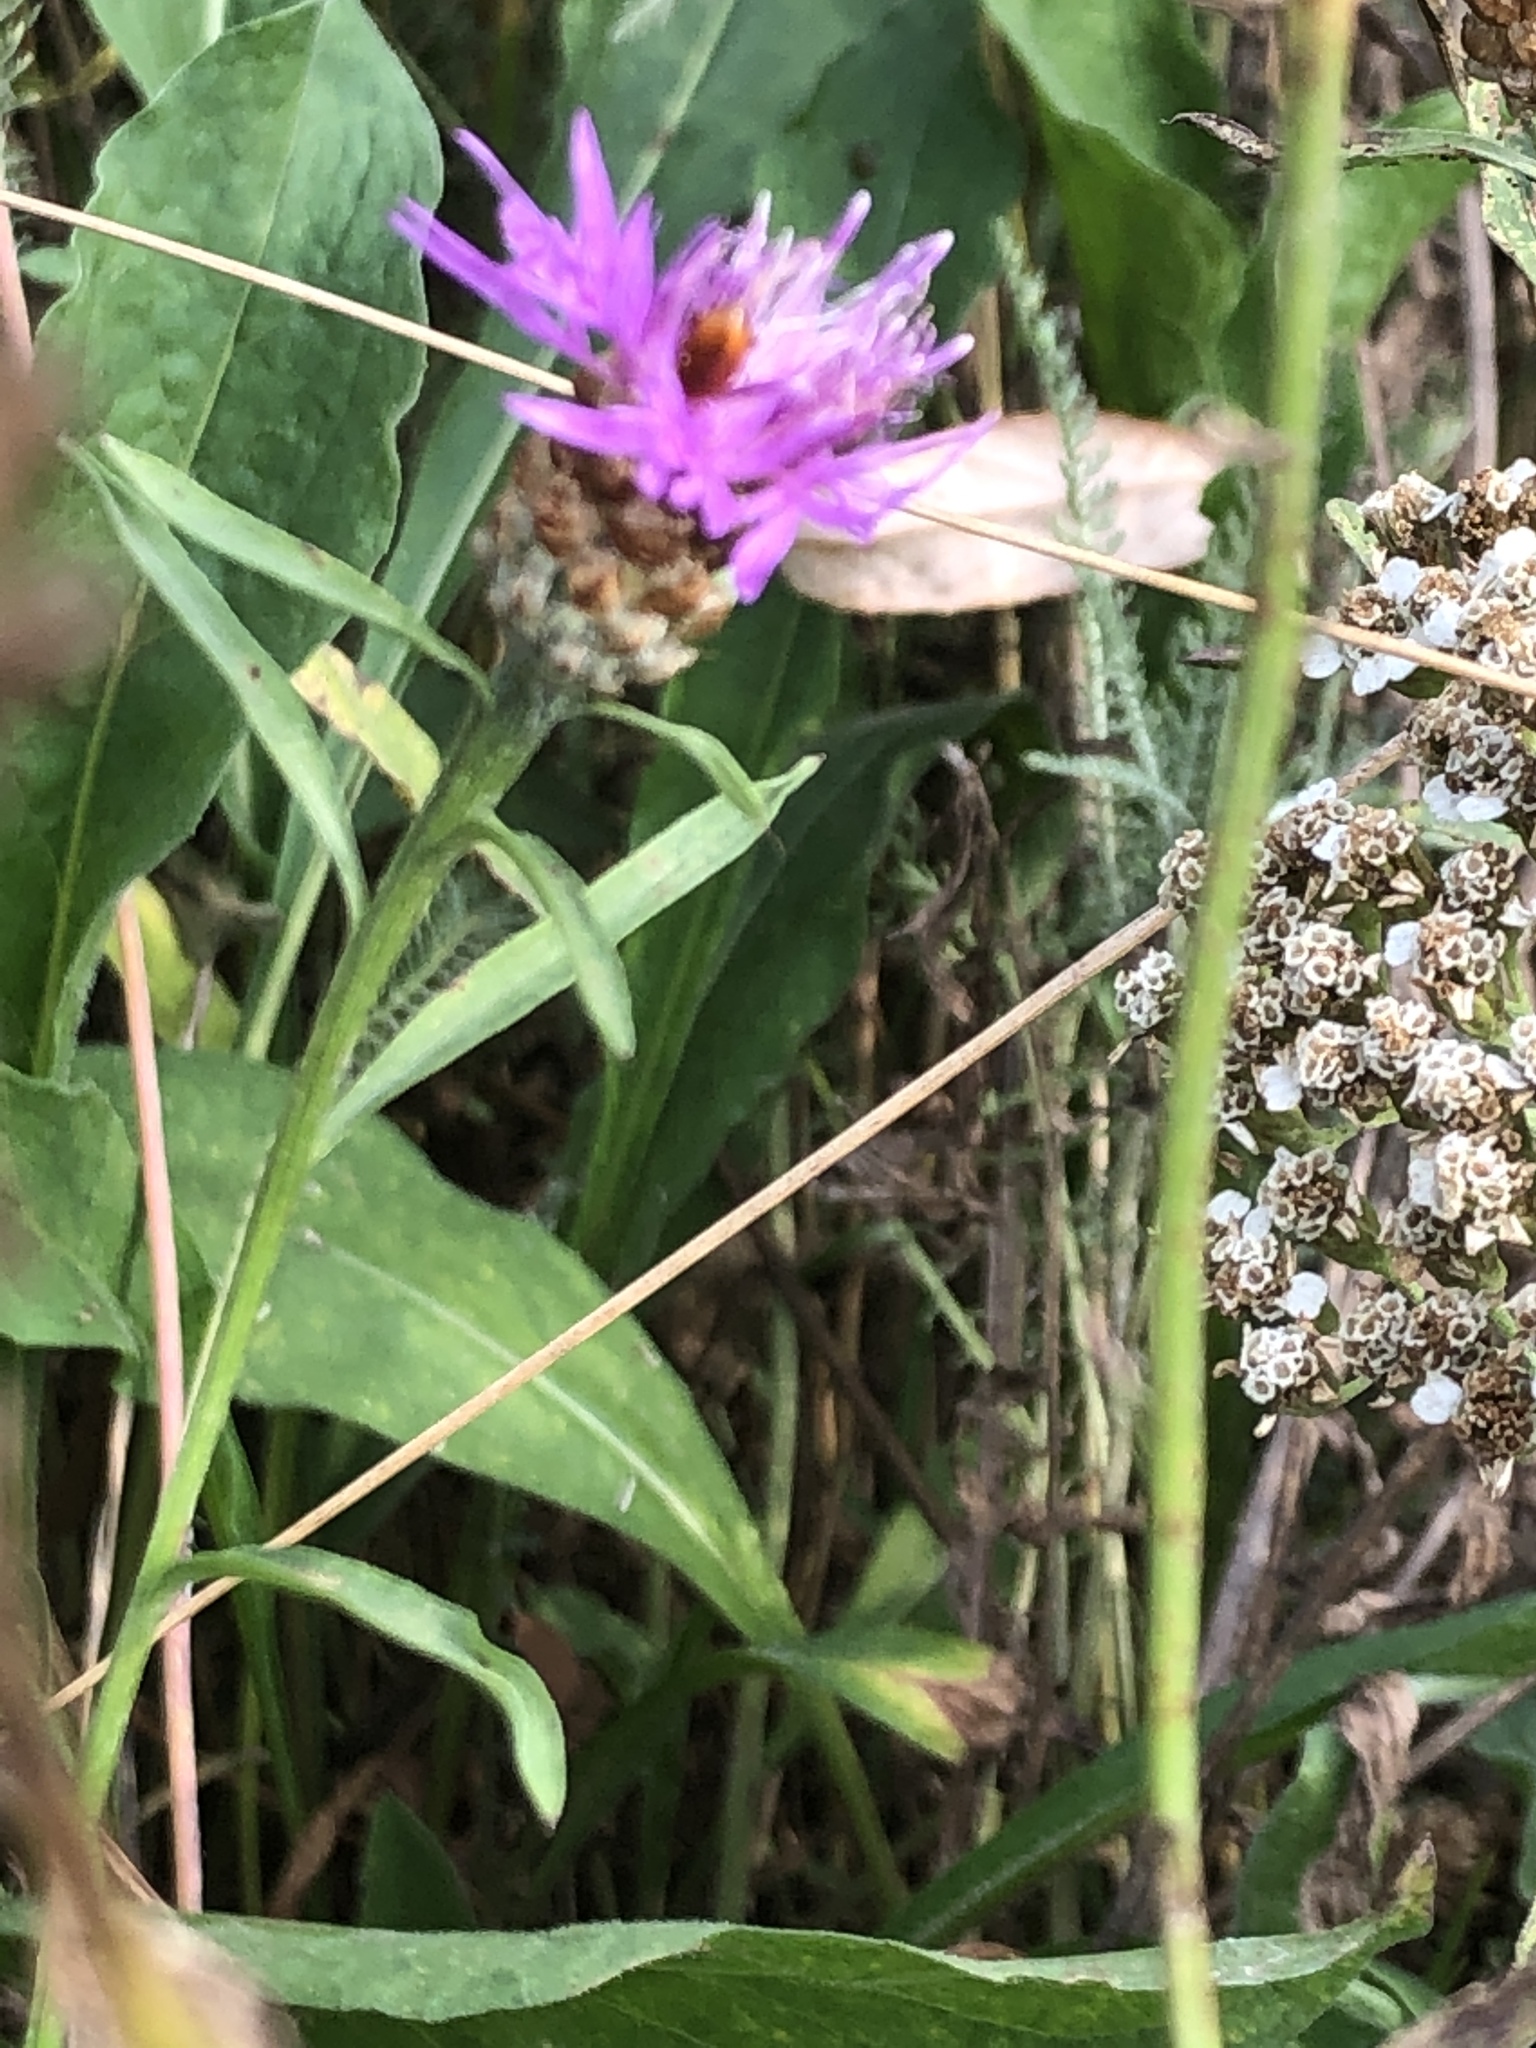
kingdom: Plantae
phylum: Tracheophyta
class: Magnoliopsida
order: Asterales
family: Asteraceae
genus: Centaurea
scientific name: Centaurea jacea
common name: Brown knapweed
